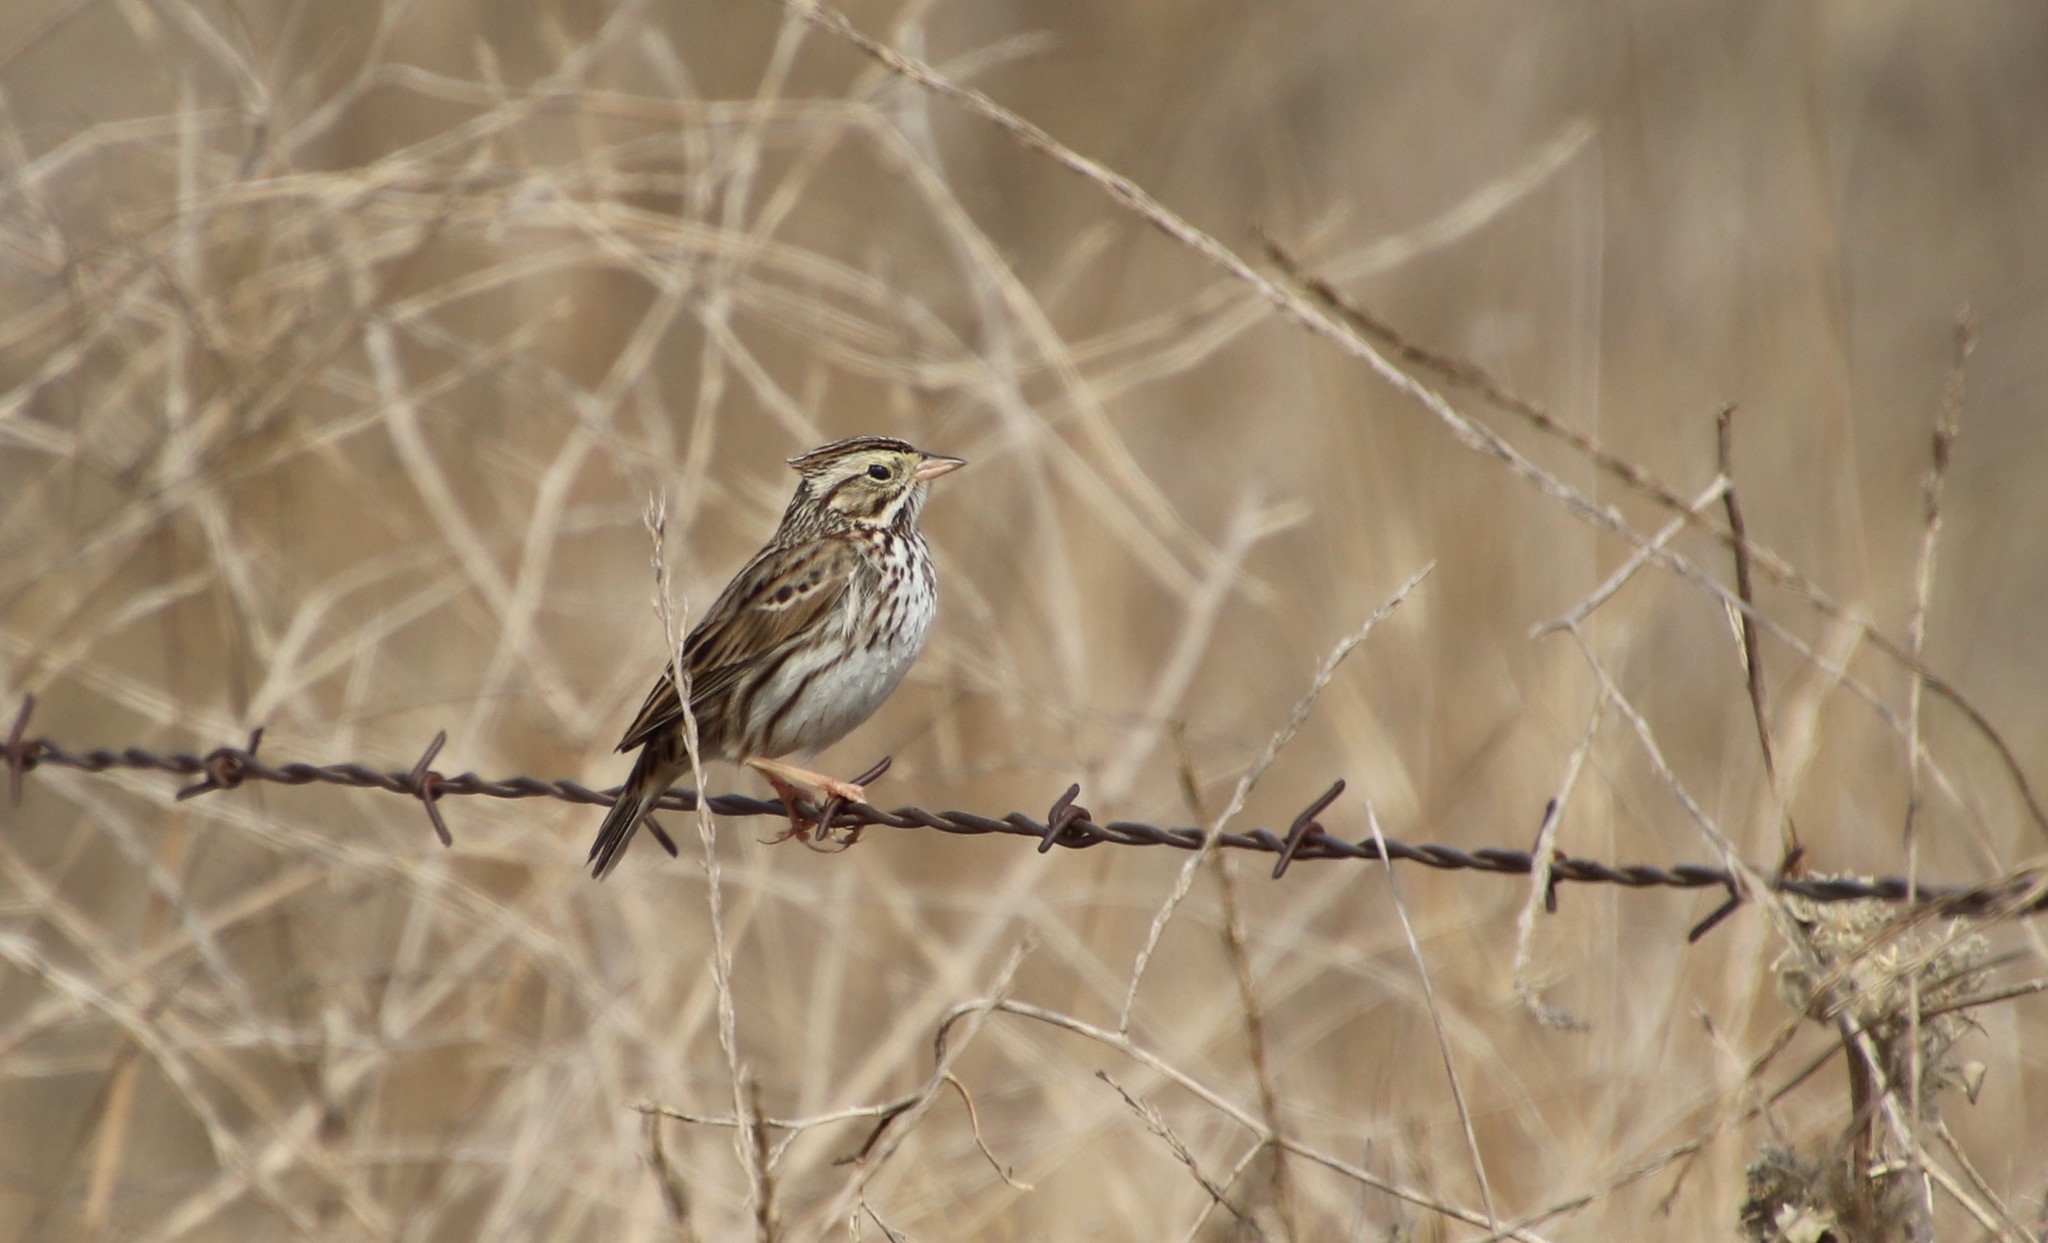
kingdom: Animalia
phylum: Chordata
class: Aves
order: Passeriformes
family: Passerellidae
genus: Passerculus
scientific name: Passerculus sandwichensis
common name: Savannah sparrow
